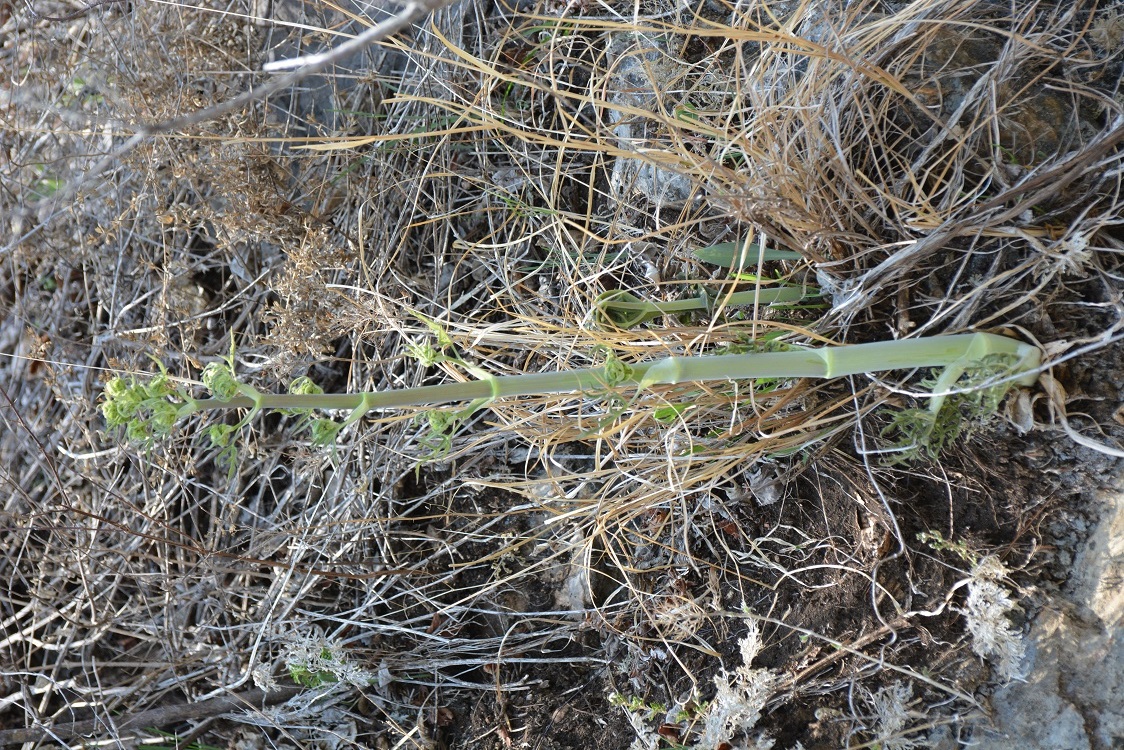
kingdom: Plantae
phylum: Tracheophyta
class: Magnoliopsida
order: Apiales
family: Apiaceae
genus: Prionosciadium
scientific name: Prionosciadium nelsonii
